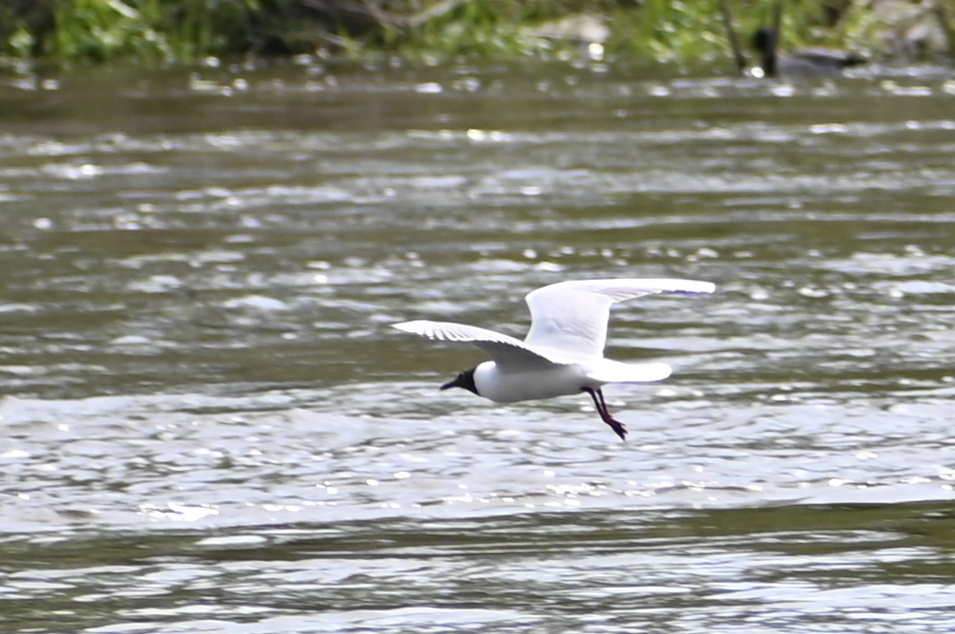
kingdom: Animalia
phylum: Chordata
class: Aves
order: Charadriiformes
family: Laridae
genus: Chroicocephalus
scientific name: Chroicocephalus ridibundus
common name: Black-headed gull
